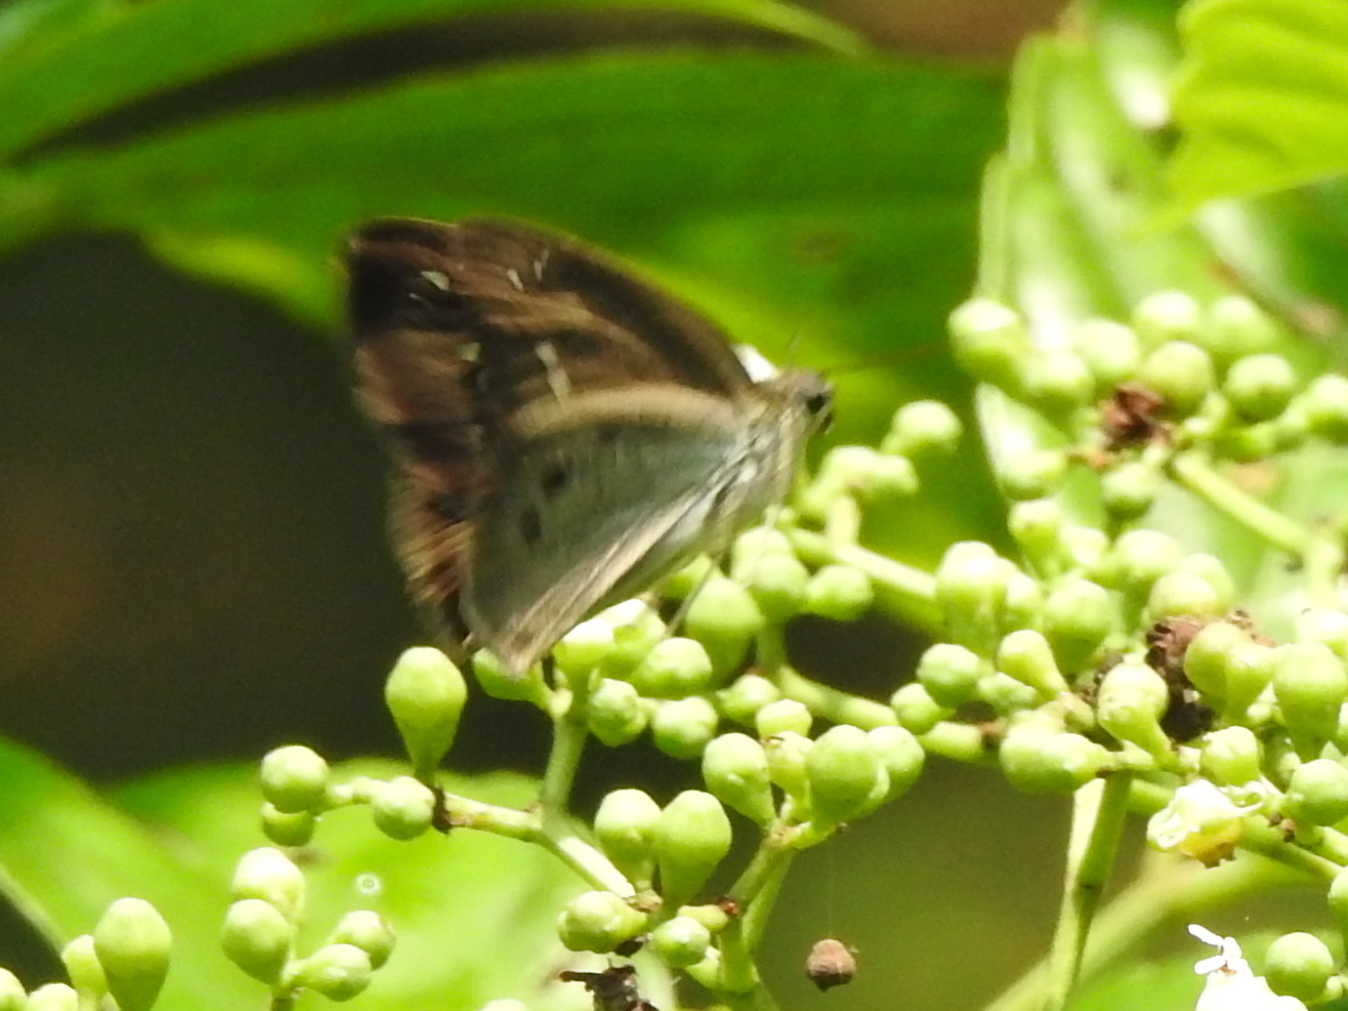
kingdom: Animalia
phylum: Arthropoda
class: Insecta
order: Lepidoptera
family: Hesperiidae
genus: Tagiades
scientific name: Tagiades japetus
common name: Pied flat
